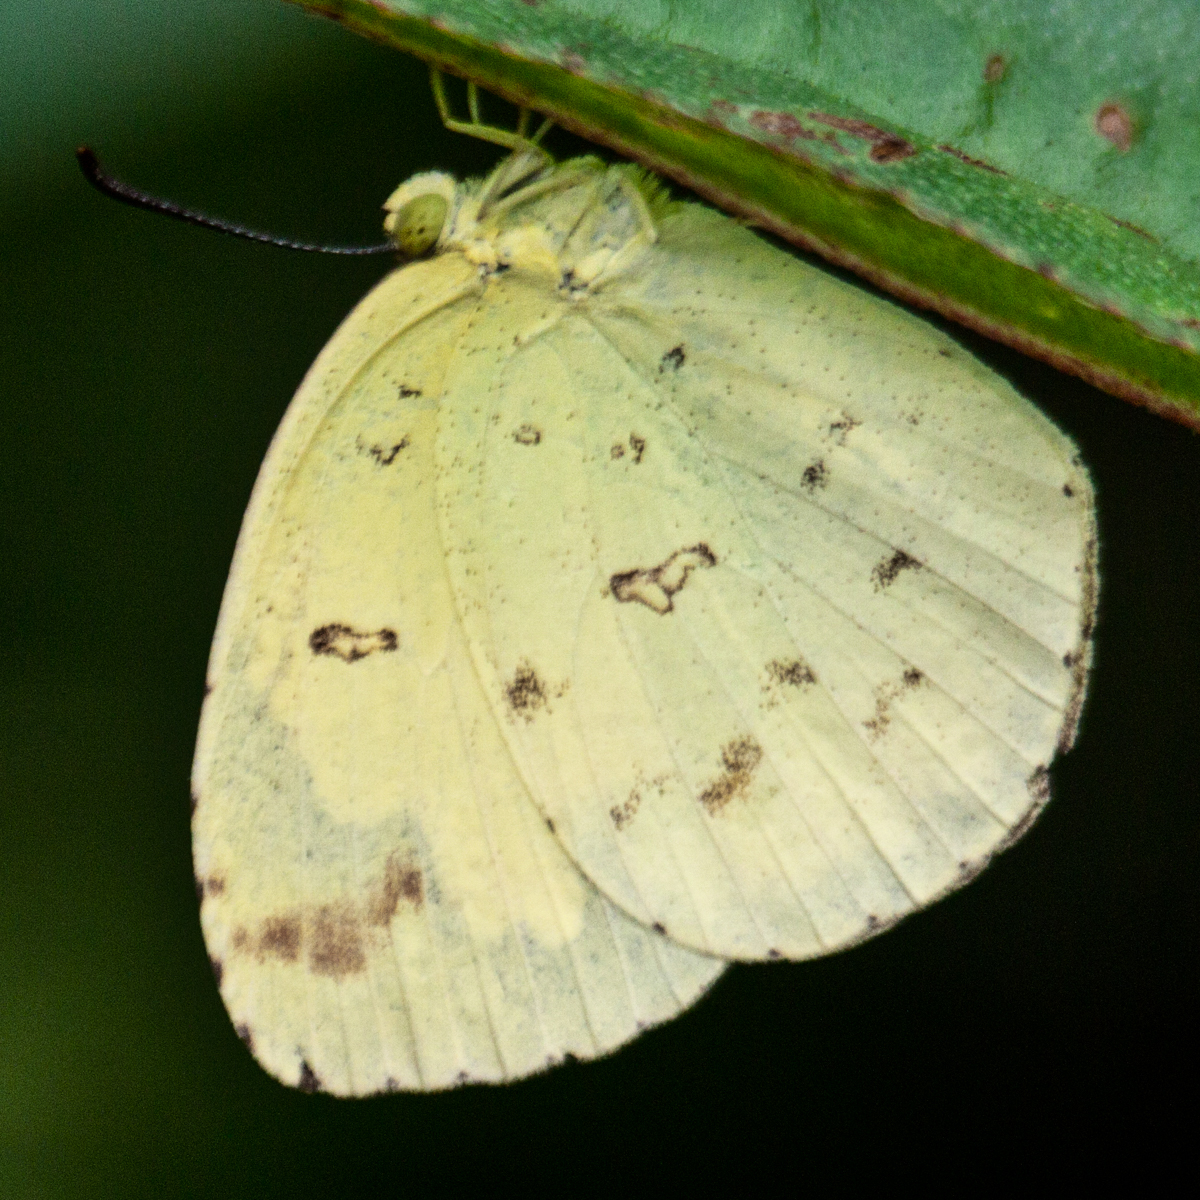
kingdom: Animalia
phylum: Arthropoda
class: Insecta
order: Lepidoptera
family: Pieridae
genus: Eurema
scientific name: Eurema hecabe
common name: Pale grass yellow
